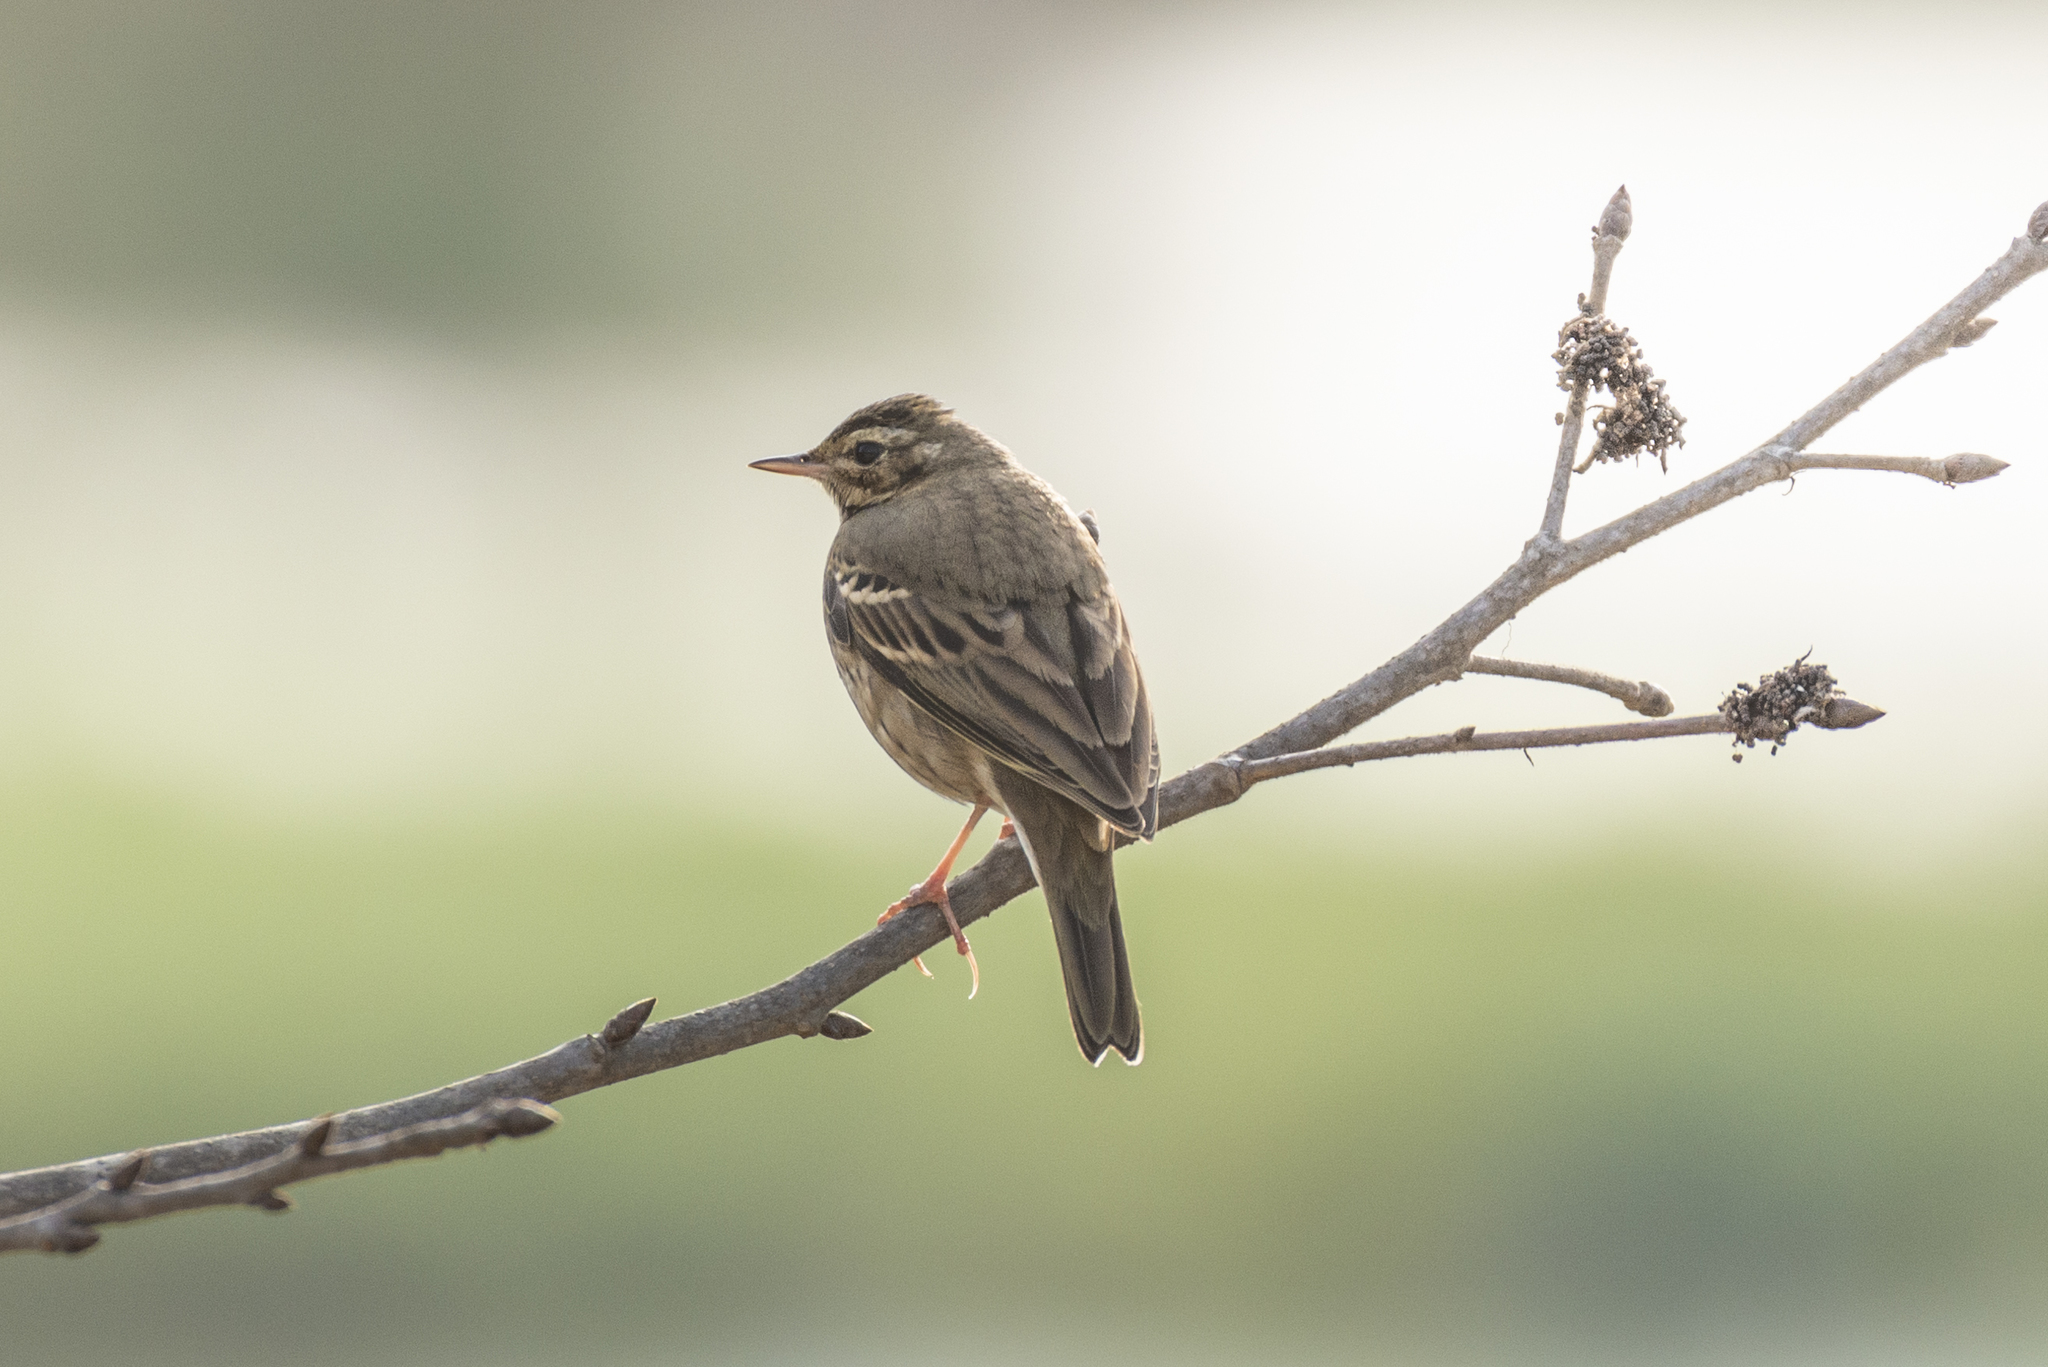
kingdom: Animalia
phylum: Chordata
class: Aves
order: Passeriformes
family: Motacillidae
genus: Anthus
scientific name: Anthus hodgsoni
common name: Olive-backed pipit
